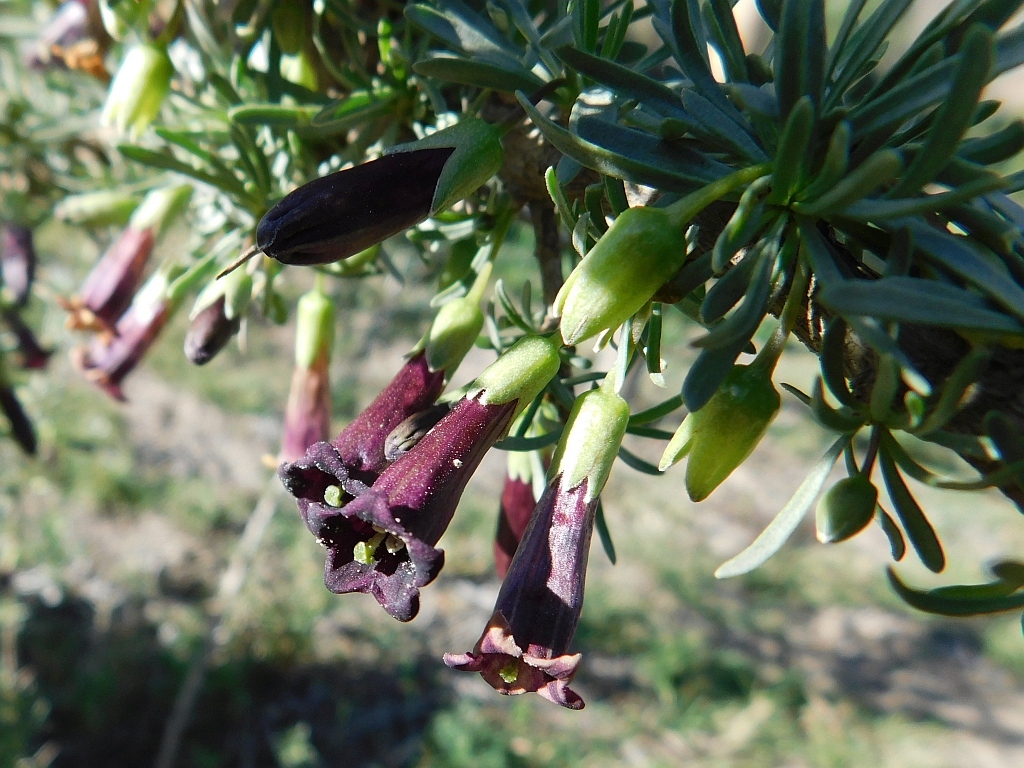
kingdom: Plantae
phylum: Tracheophyta
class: Magnoliopsida
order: Solanales
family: Solanaceae
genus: Lycium
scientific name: Lycium afrum
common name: Kaffir boxthorn
